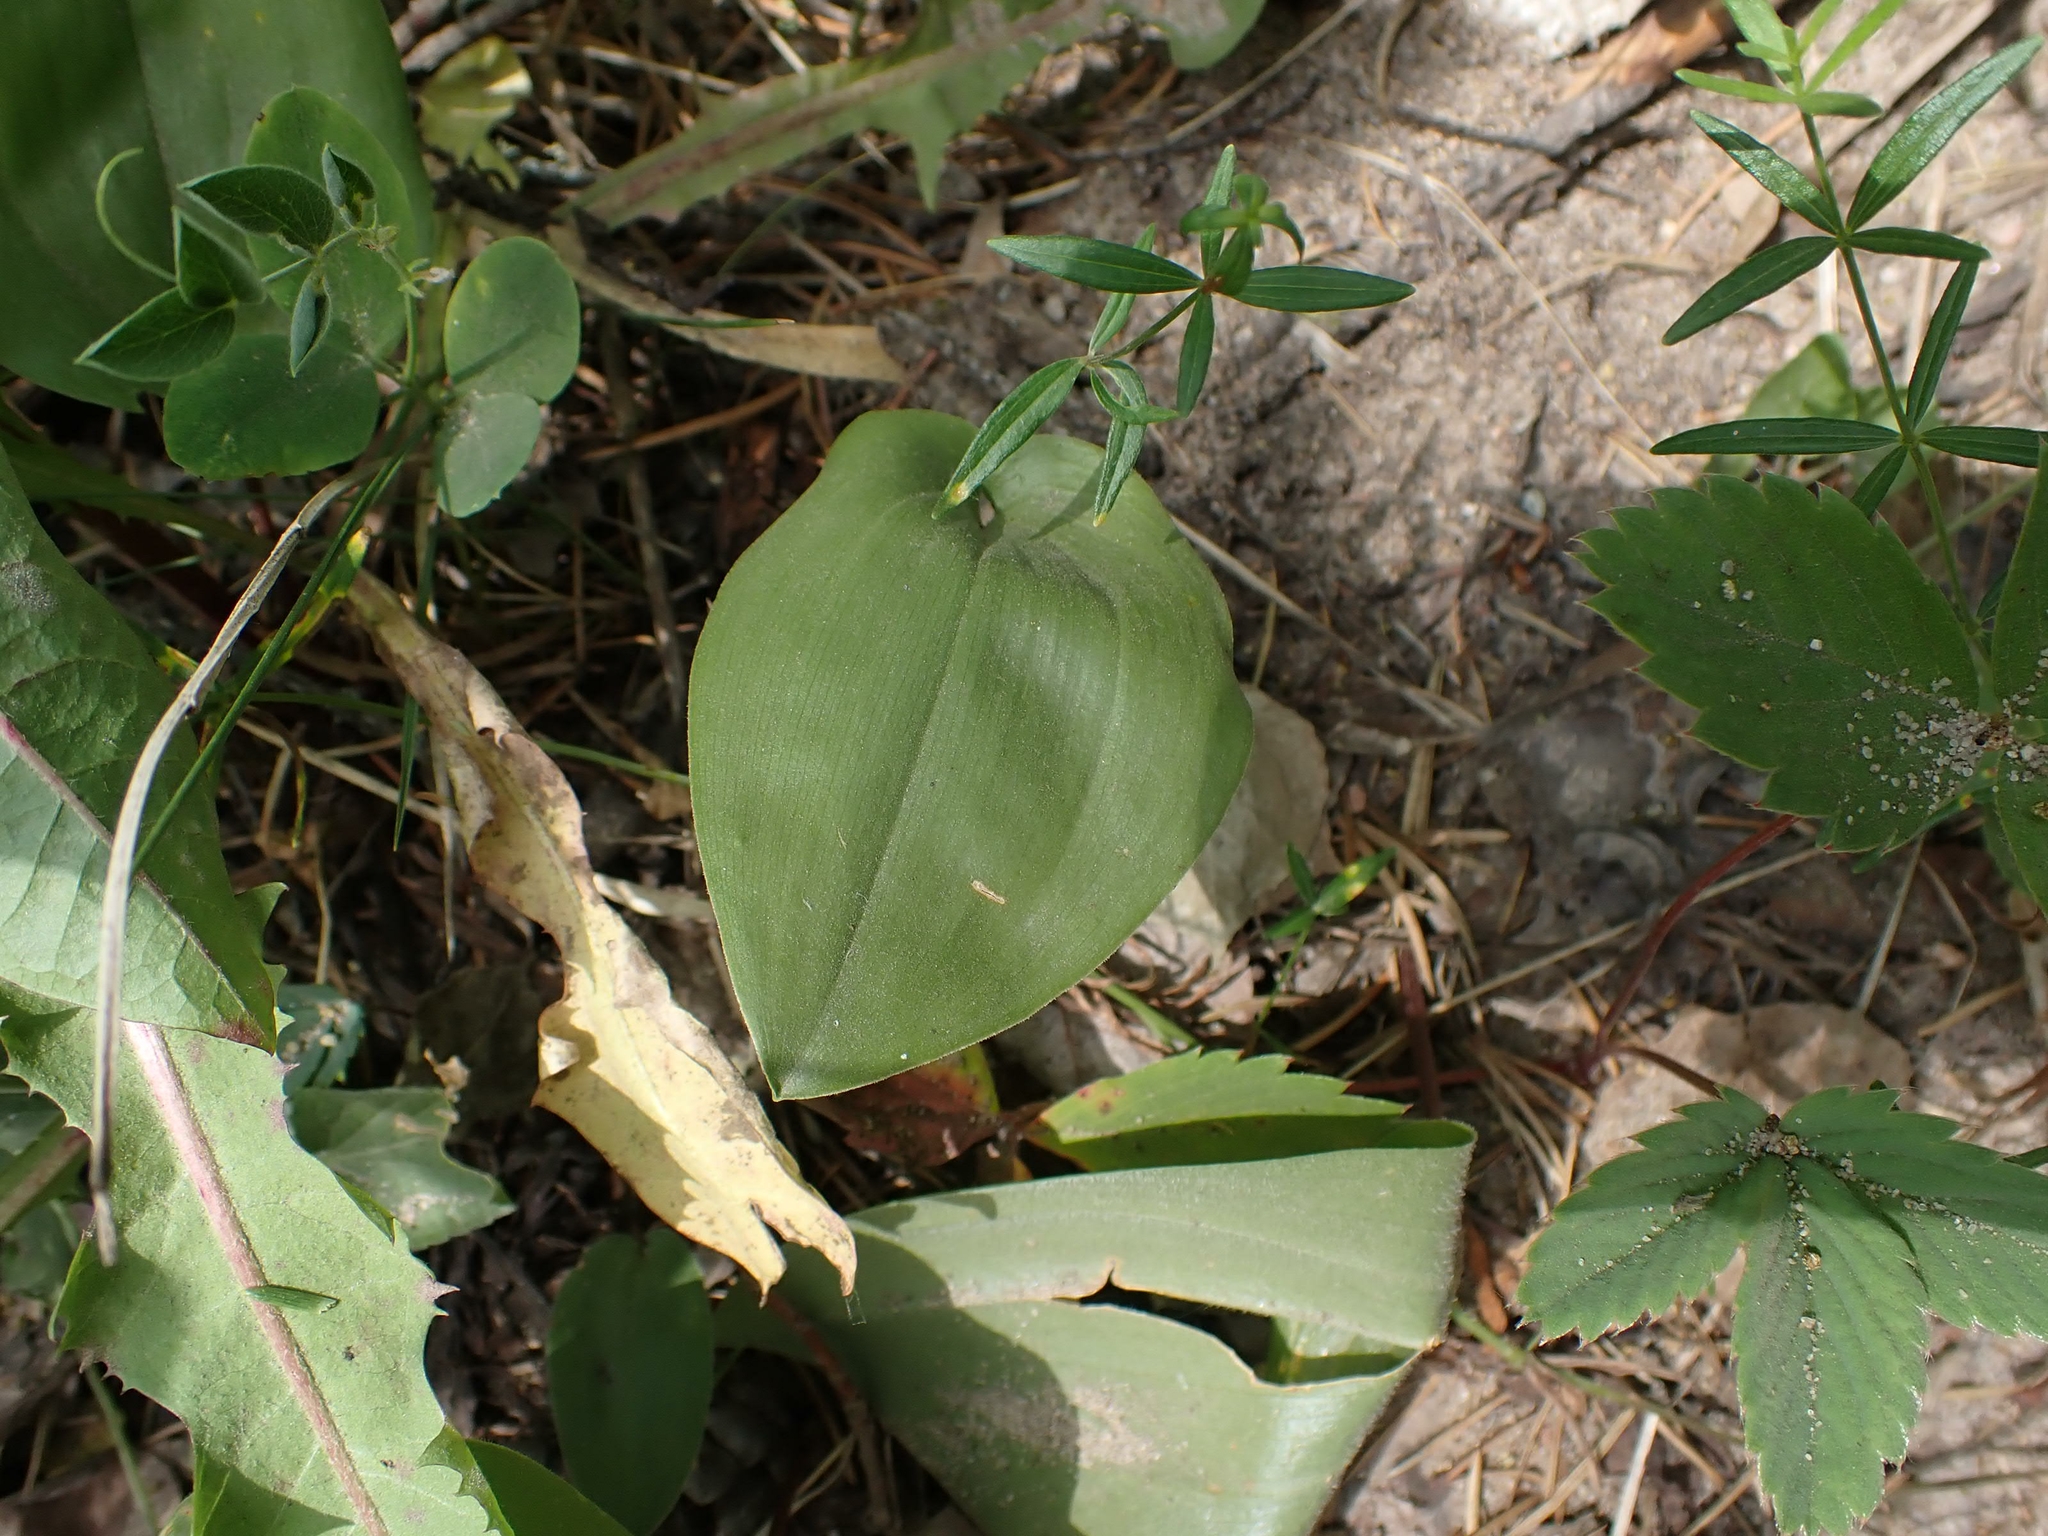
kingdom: Plantae
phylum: Tracheophyta
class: Liliopsida
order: Asparagales
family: Asparagaceae
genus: Maianthemum
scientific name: Maianthemum canadense
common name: False lily-of-the-valley
